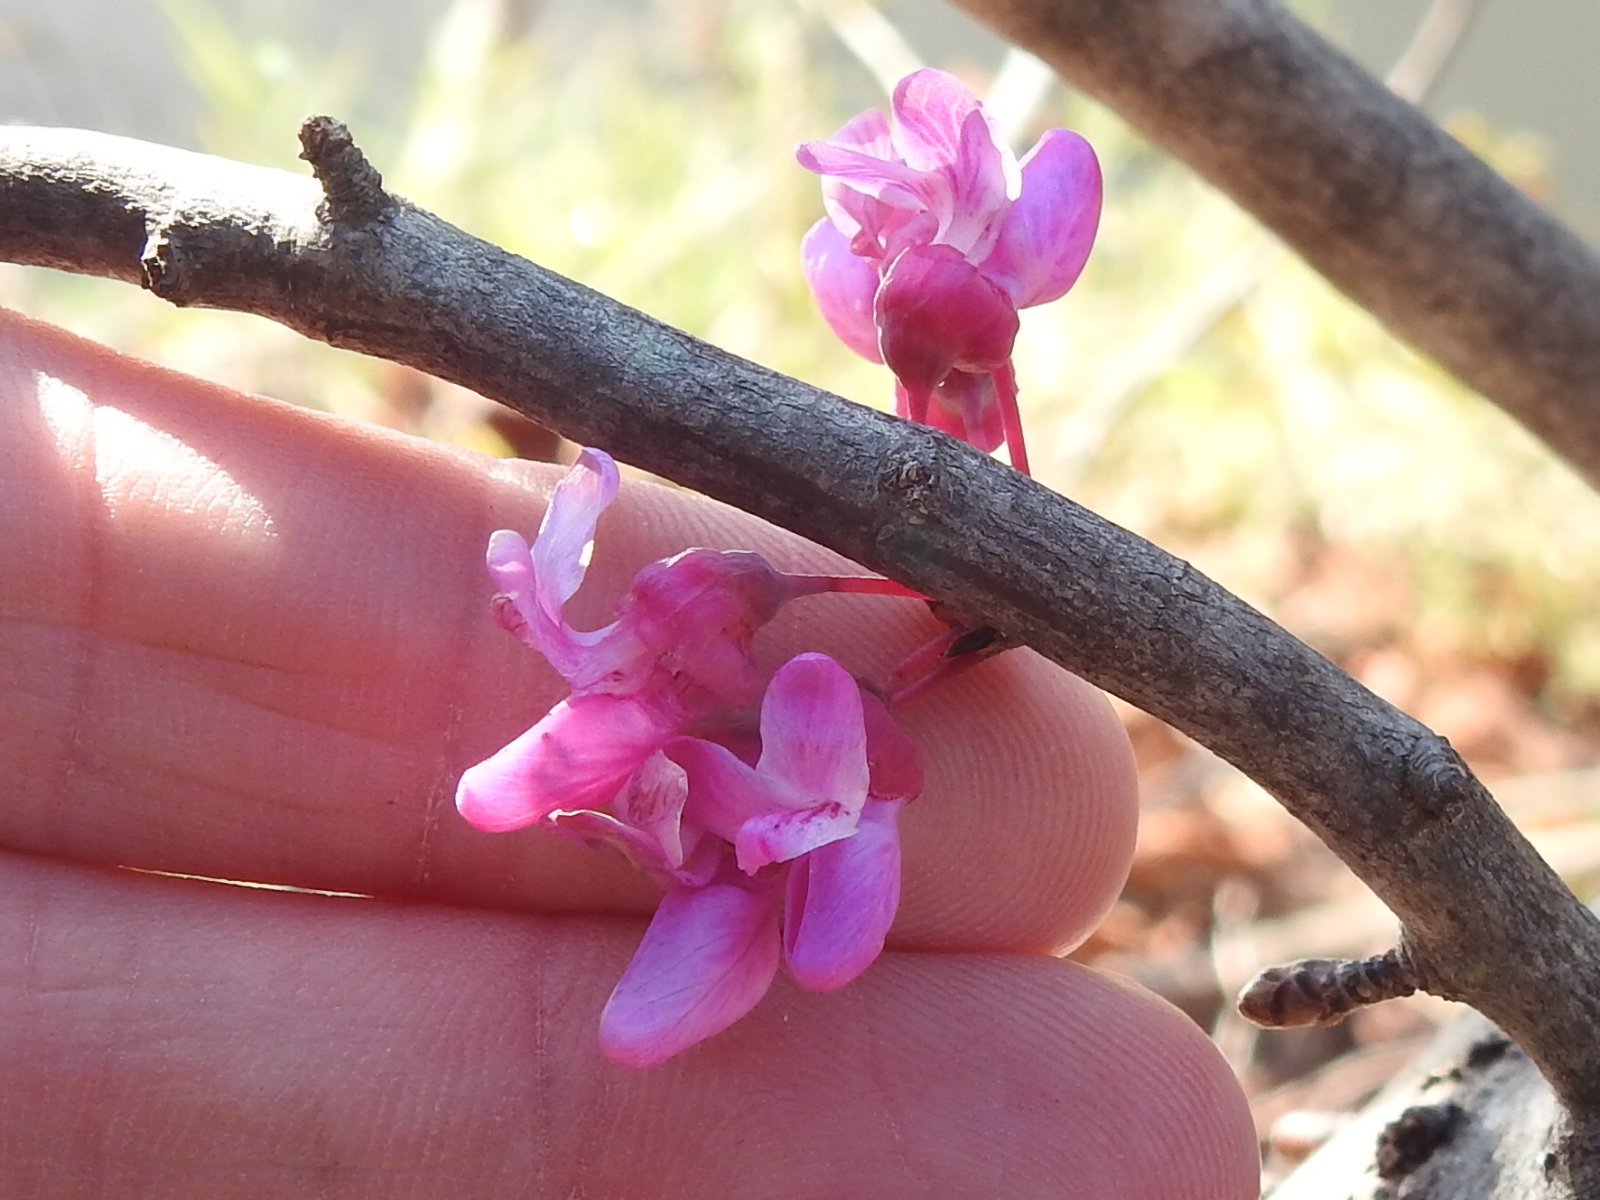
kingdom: Plantae
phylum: Tracheophyta
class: Magnoliopsida
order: Fabales
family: Fabaceae
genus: Cercis
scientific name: Cercis canadensis
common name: Eastern redbud
